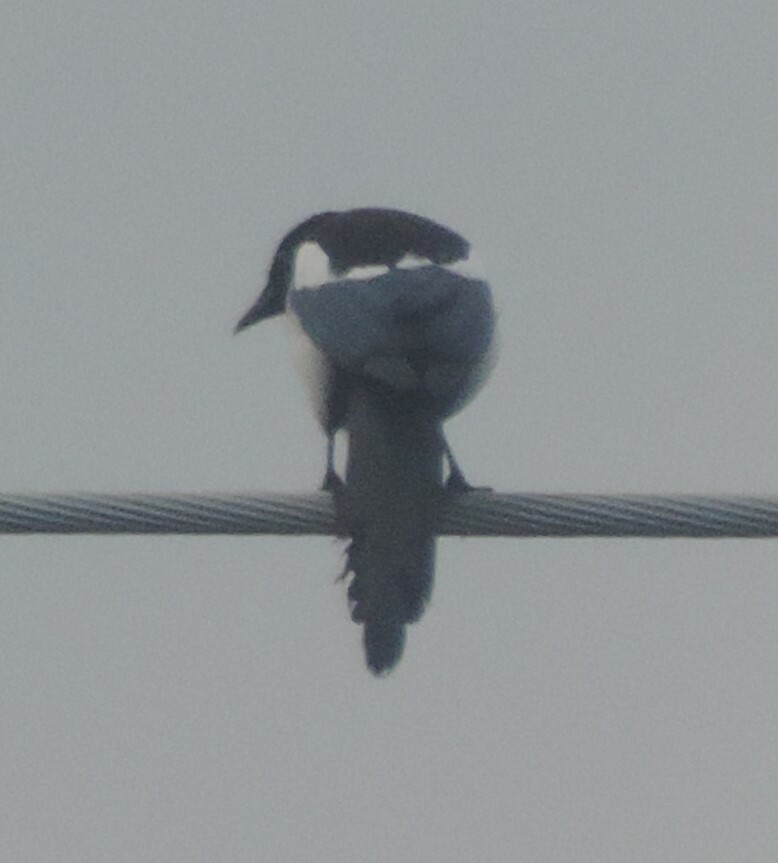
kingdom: Animalia
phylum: Chordata
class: Aves
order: Passeriformes
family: Corvidae
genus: Pica
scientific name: Pica hudsonia
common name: Black-billed magpie
